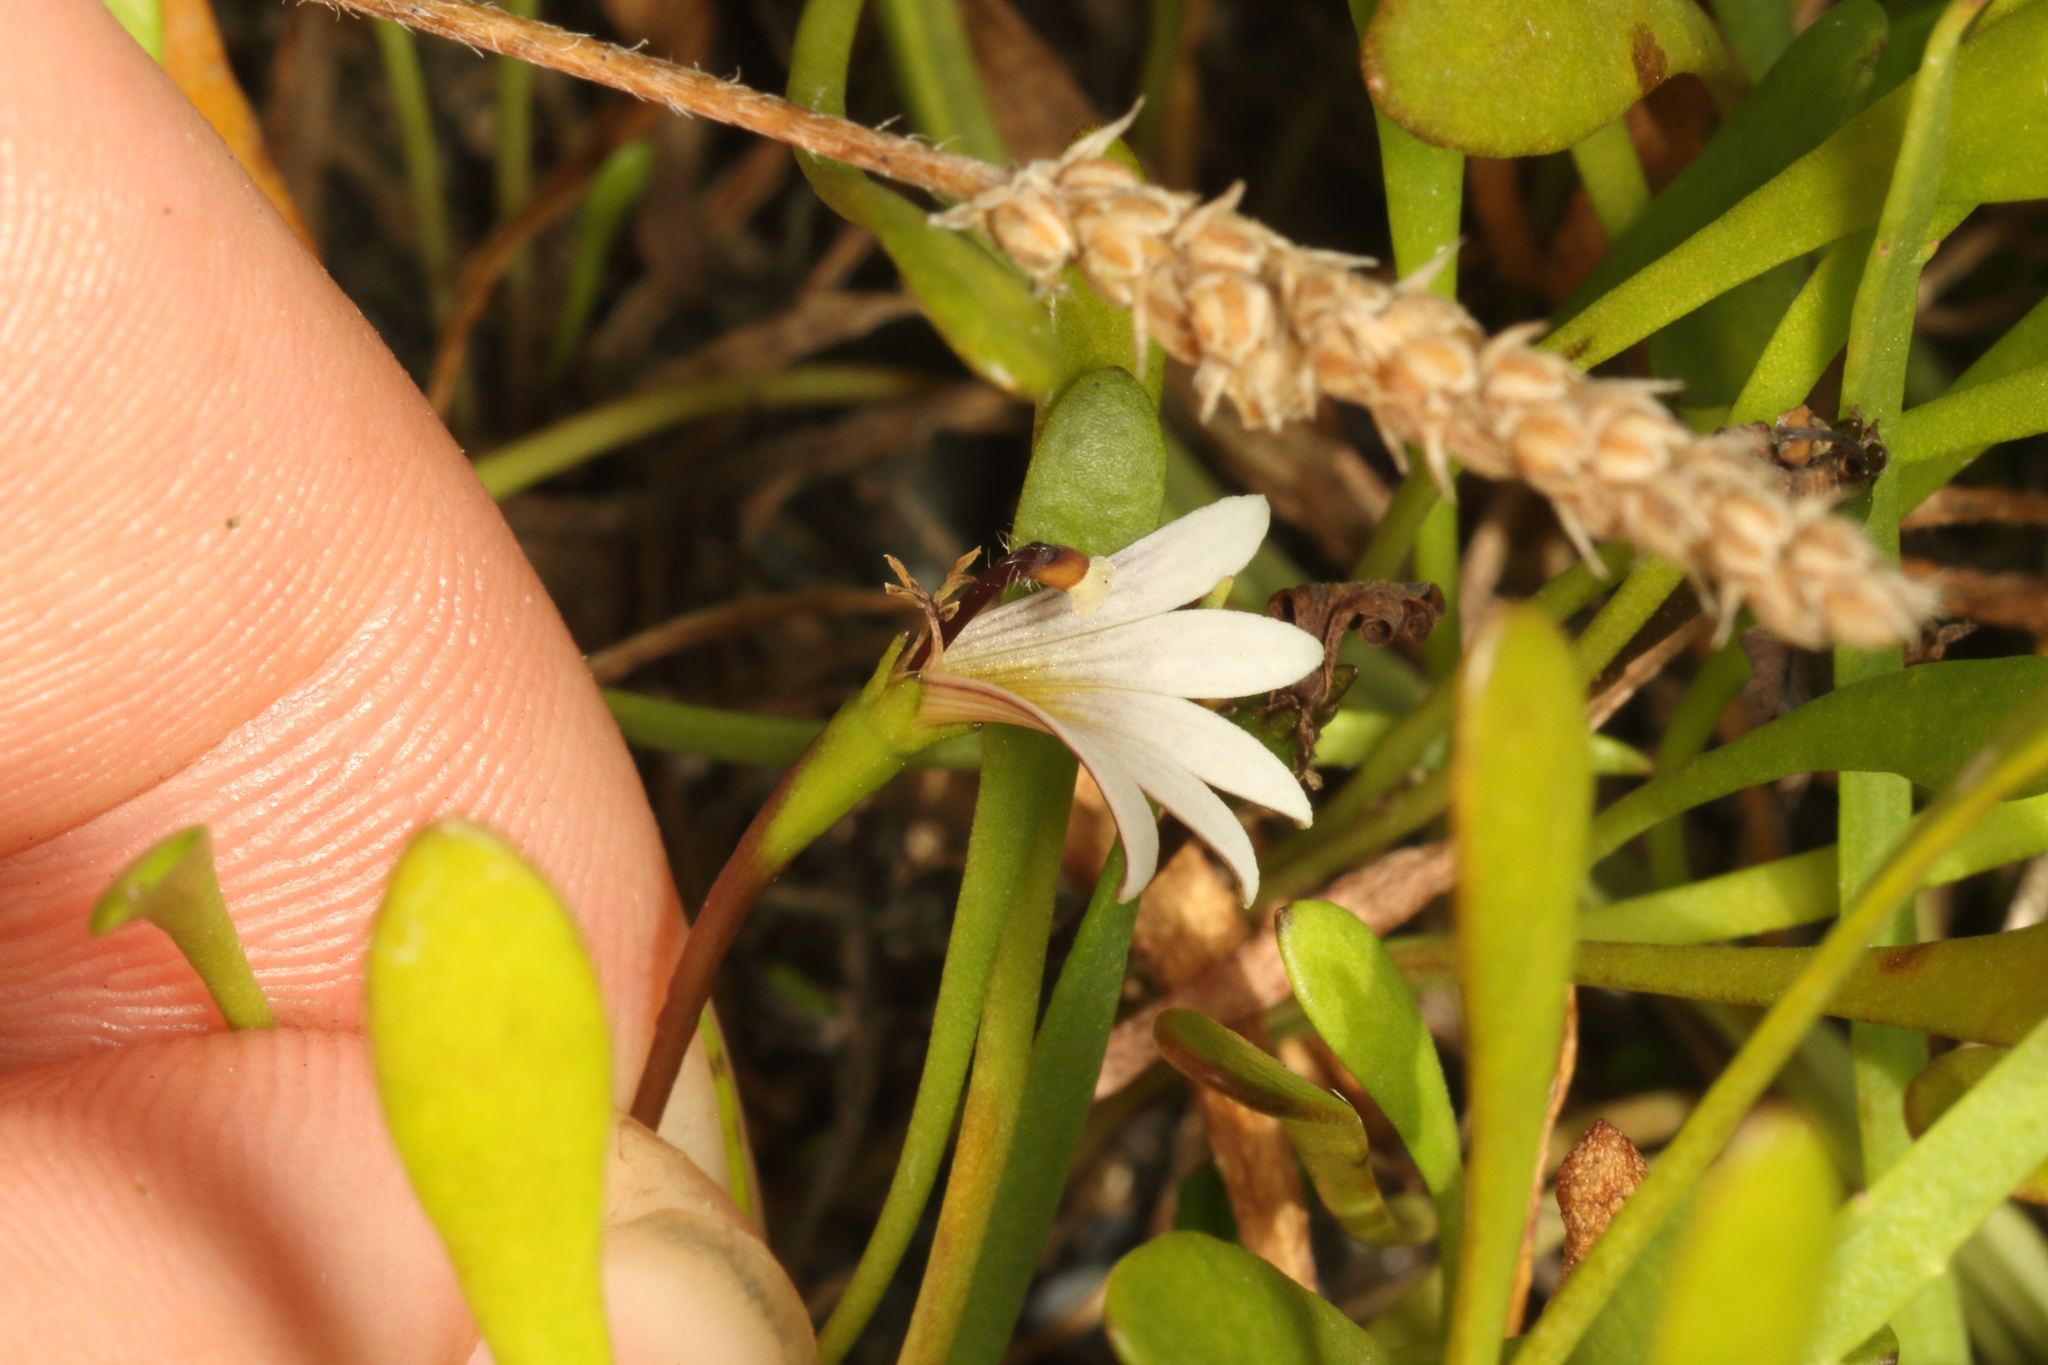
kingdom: Plantae
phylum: Tracheophyta
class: Magnoliopsida
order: Asterales
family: Goodeniaceae
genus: Goodenia
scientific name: Goodenia radicans
